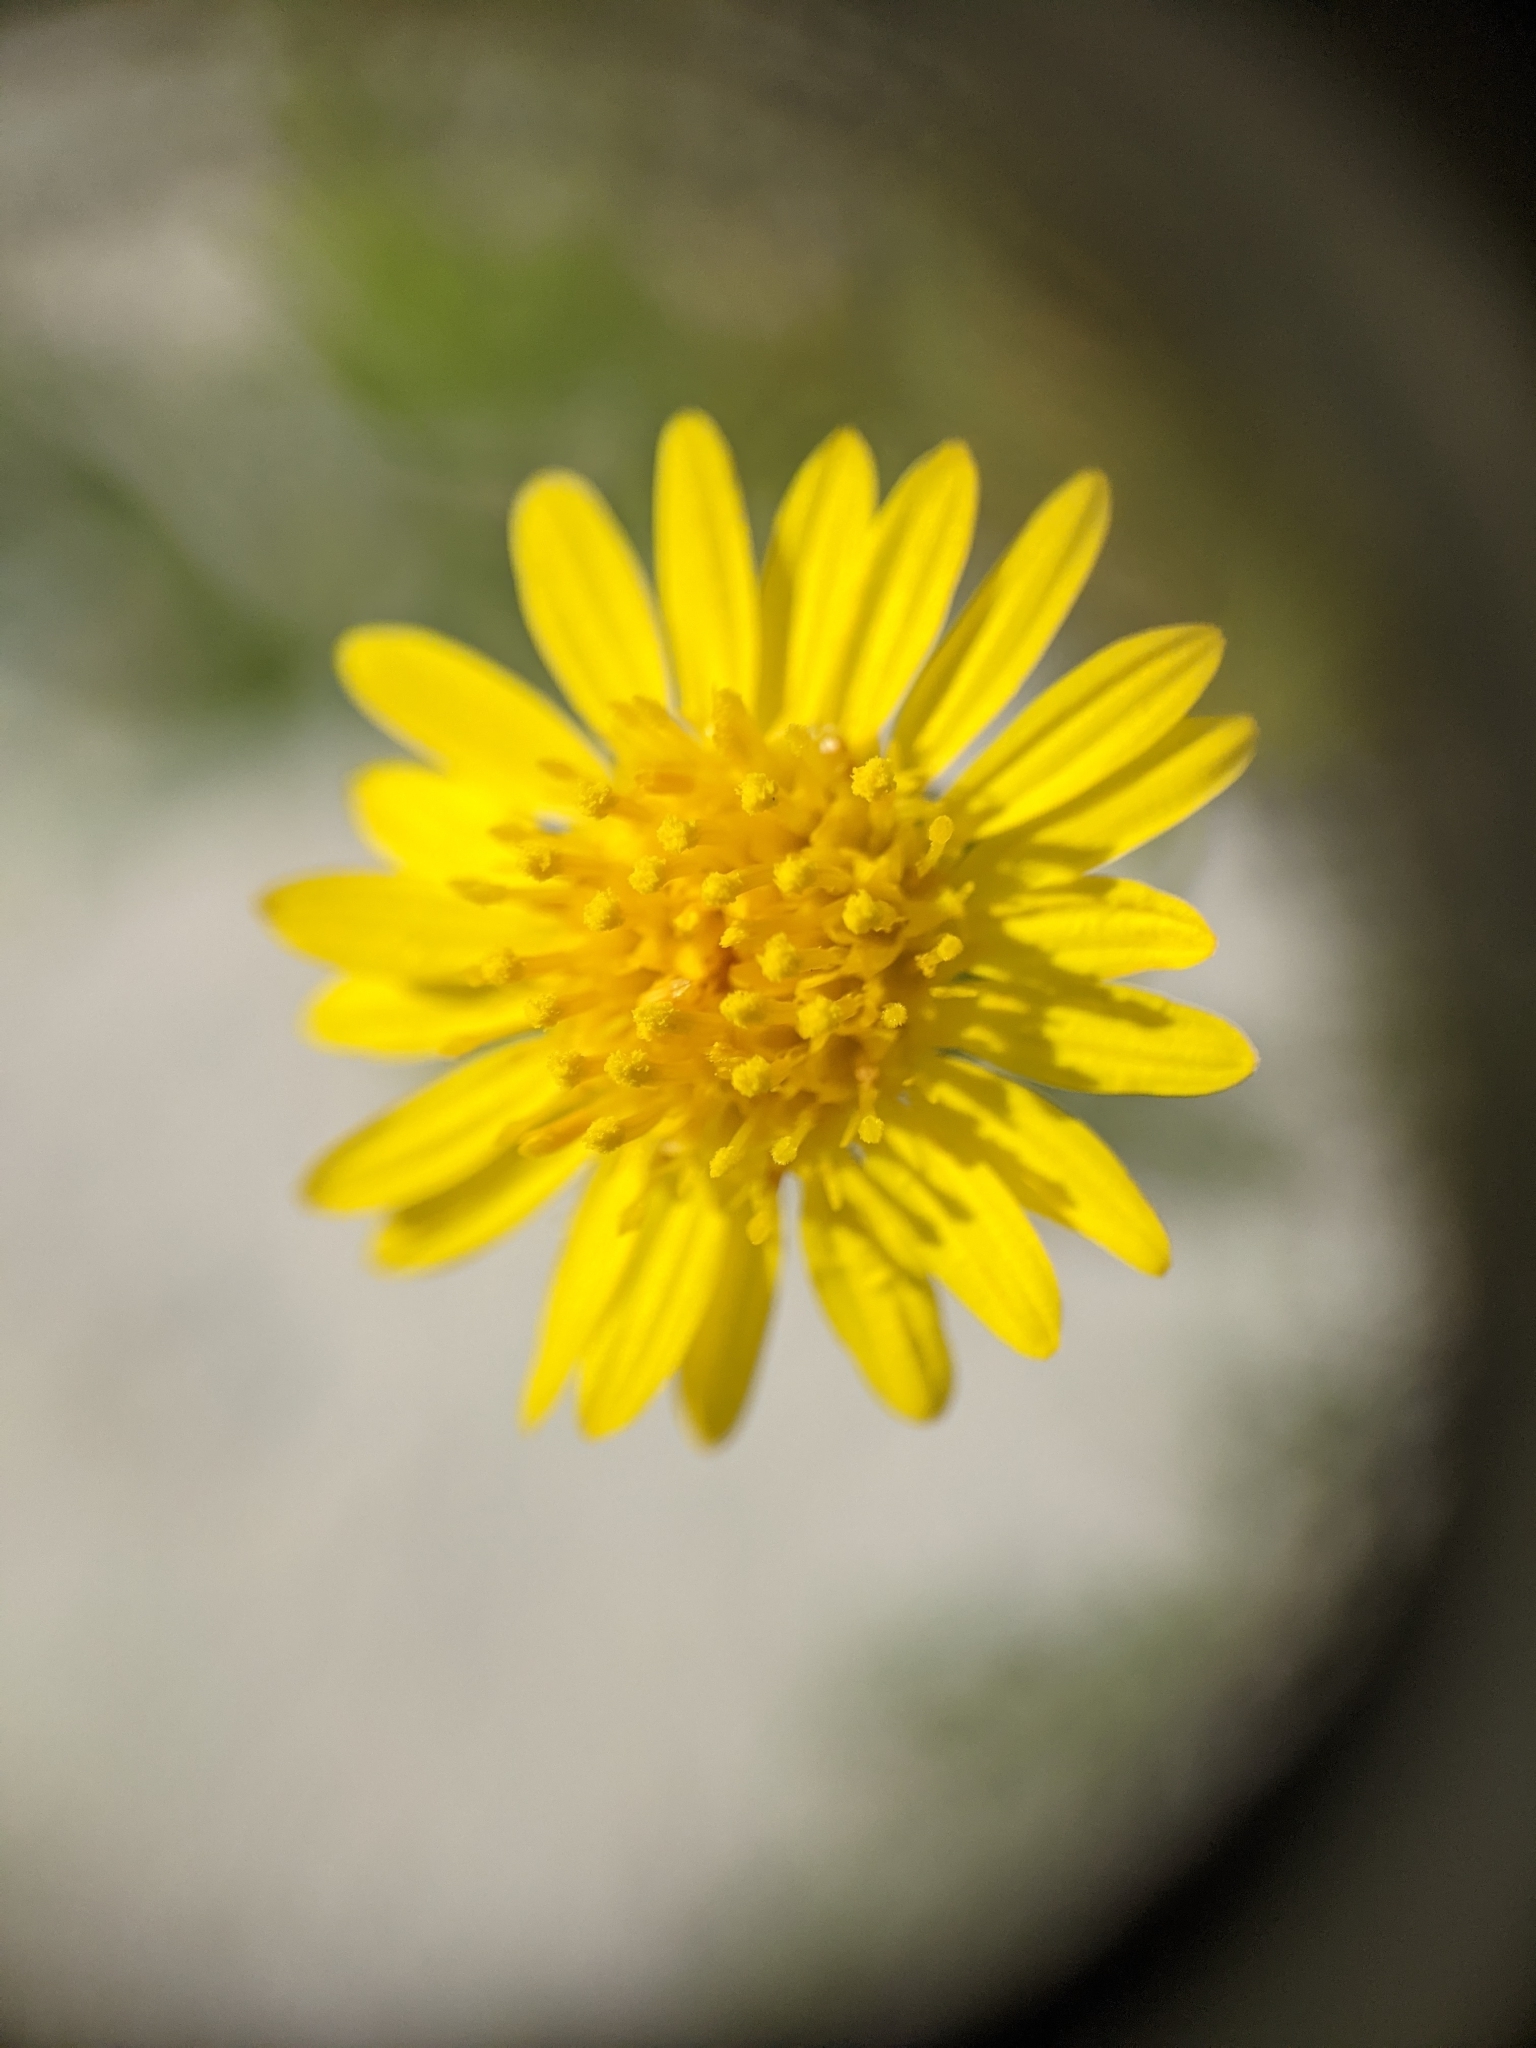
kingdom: Plantae
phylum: Tracheophyta
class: Magnoliopsida
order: Asterales
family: Asteraceae
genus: Heterotheca
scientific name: Heterotheca subaxillaris
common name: Camphorweed
